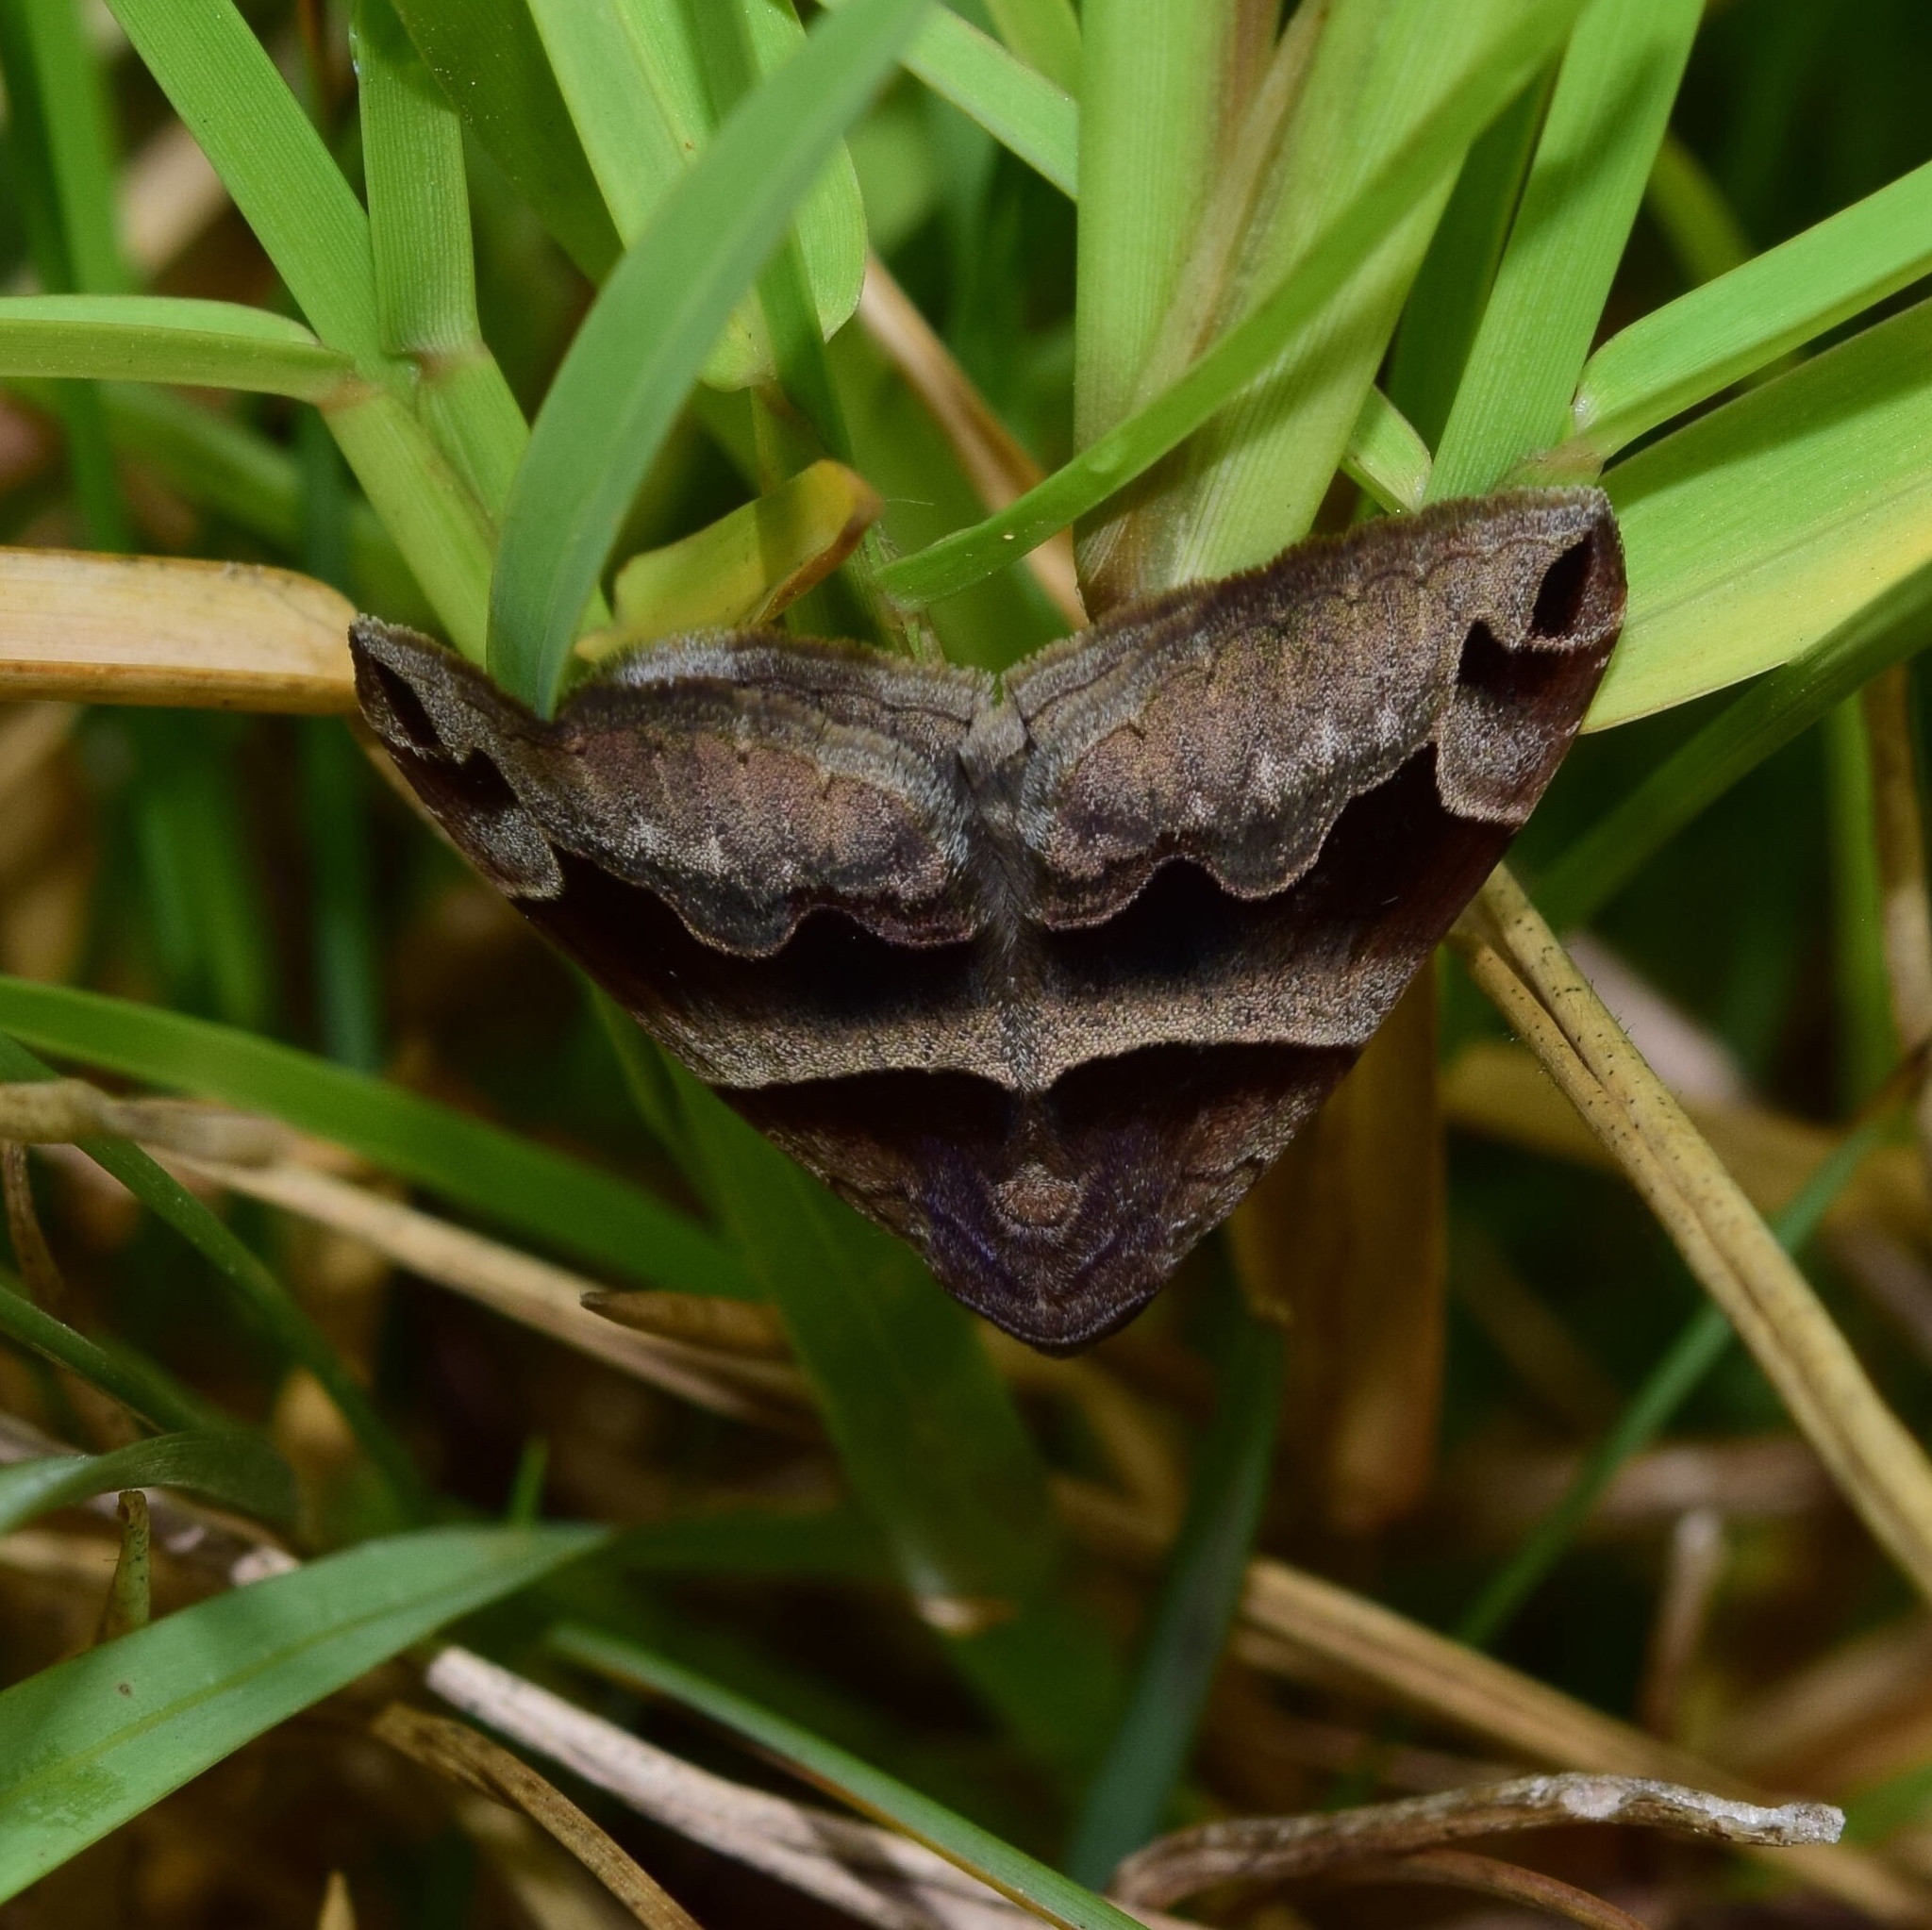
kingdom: Animalia
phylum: Arthropoda
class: Insecta
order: Lepidoptera
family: Erebidae
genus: Dysgonia
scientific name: Dysgonia angularis
